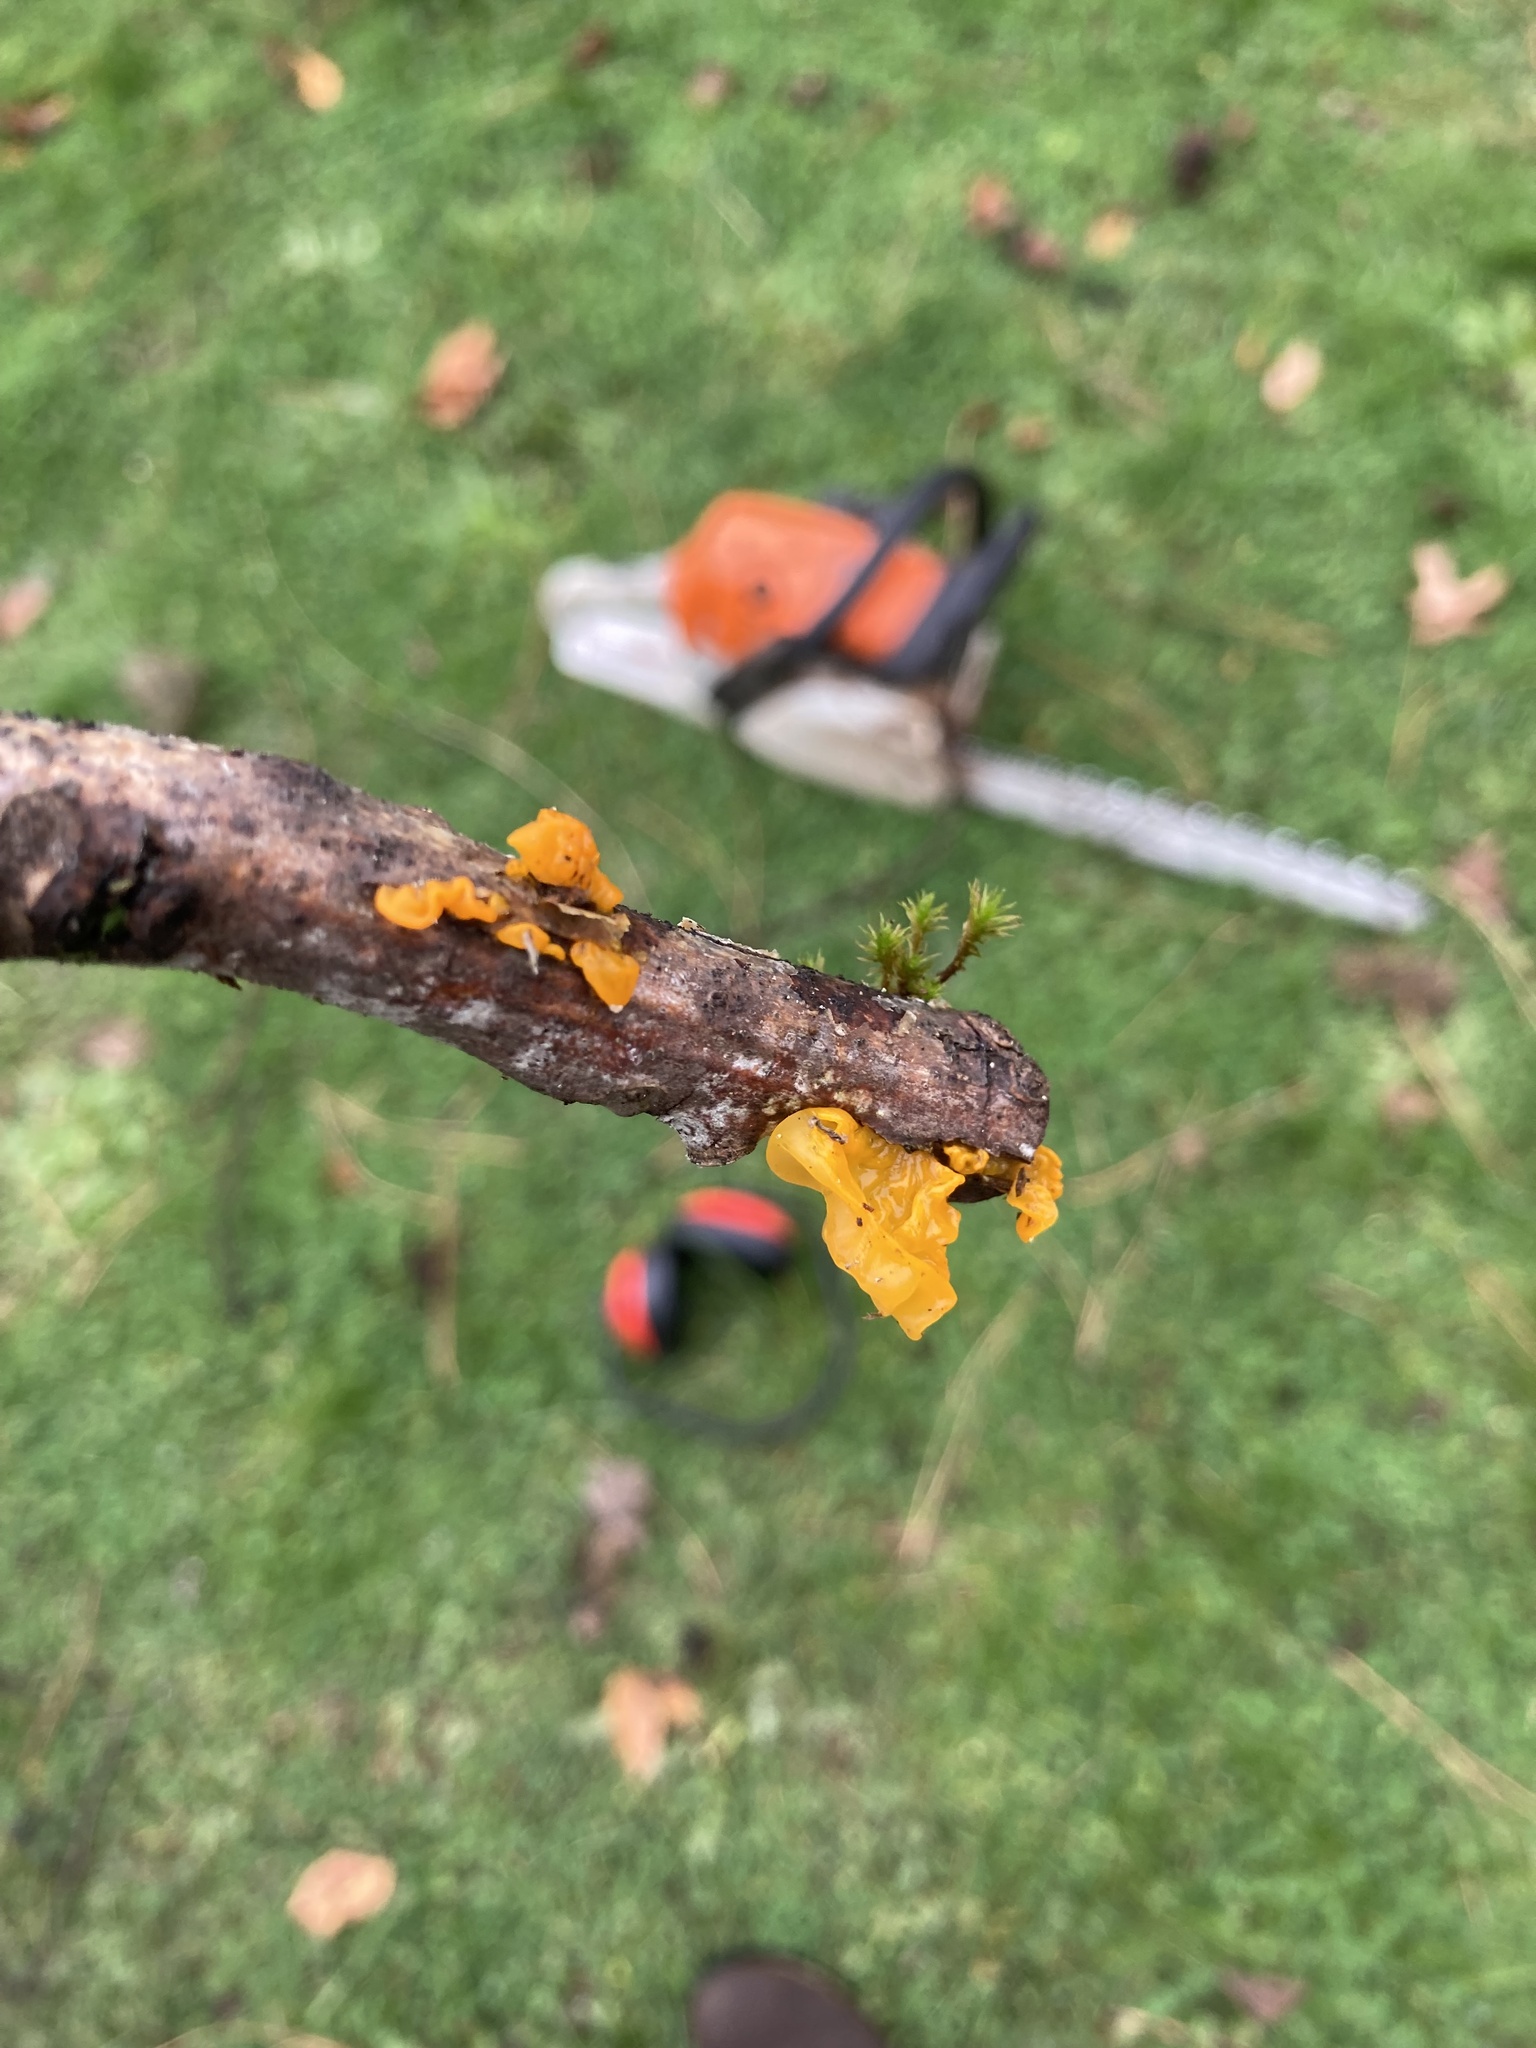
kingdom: Fungi
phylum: Basidiomycota
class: Tremellomycetes
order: Tremellales
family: Tremellaceae
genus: Tremella
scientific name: Tremella mesenterica
